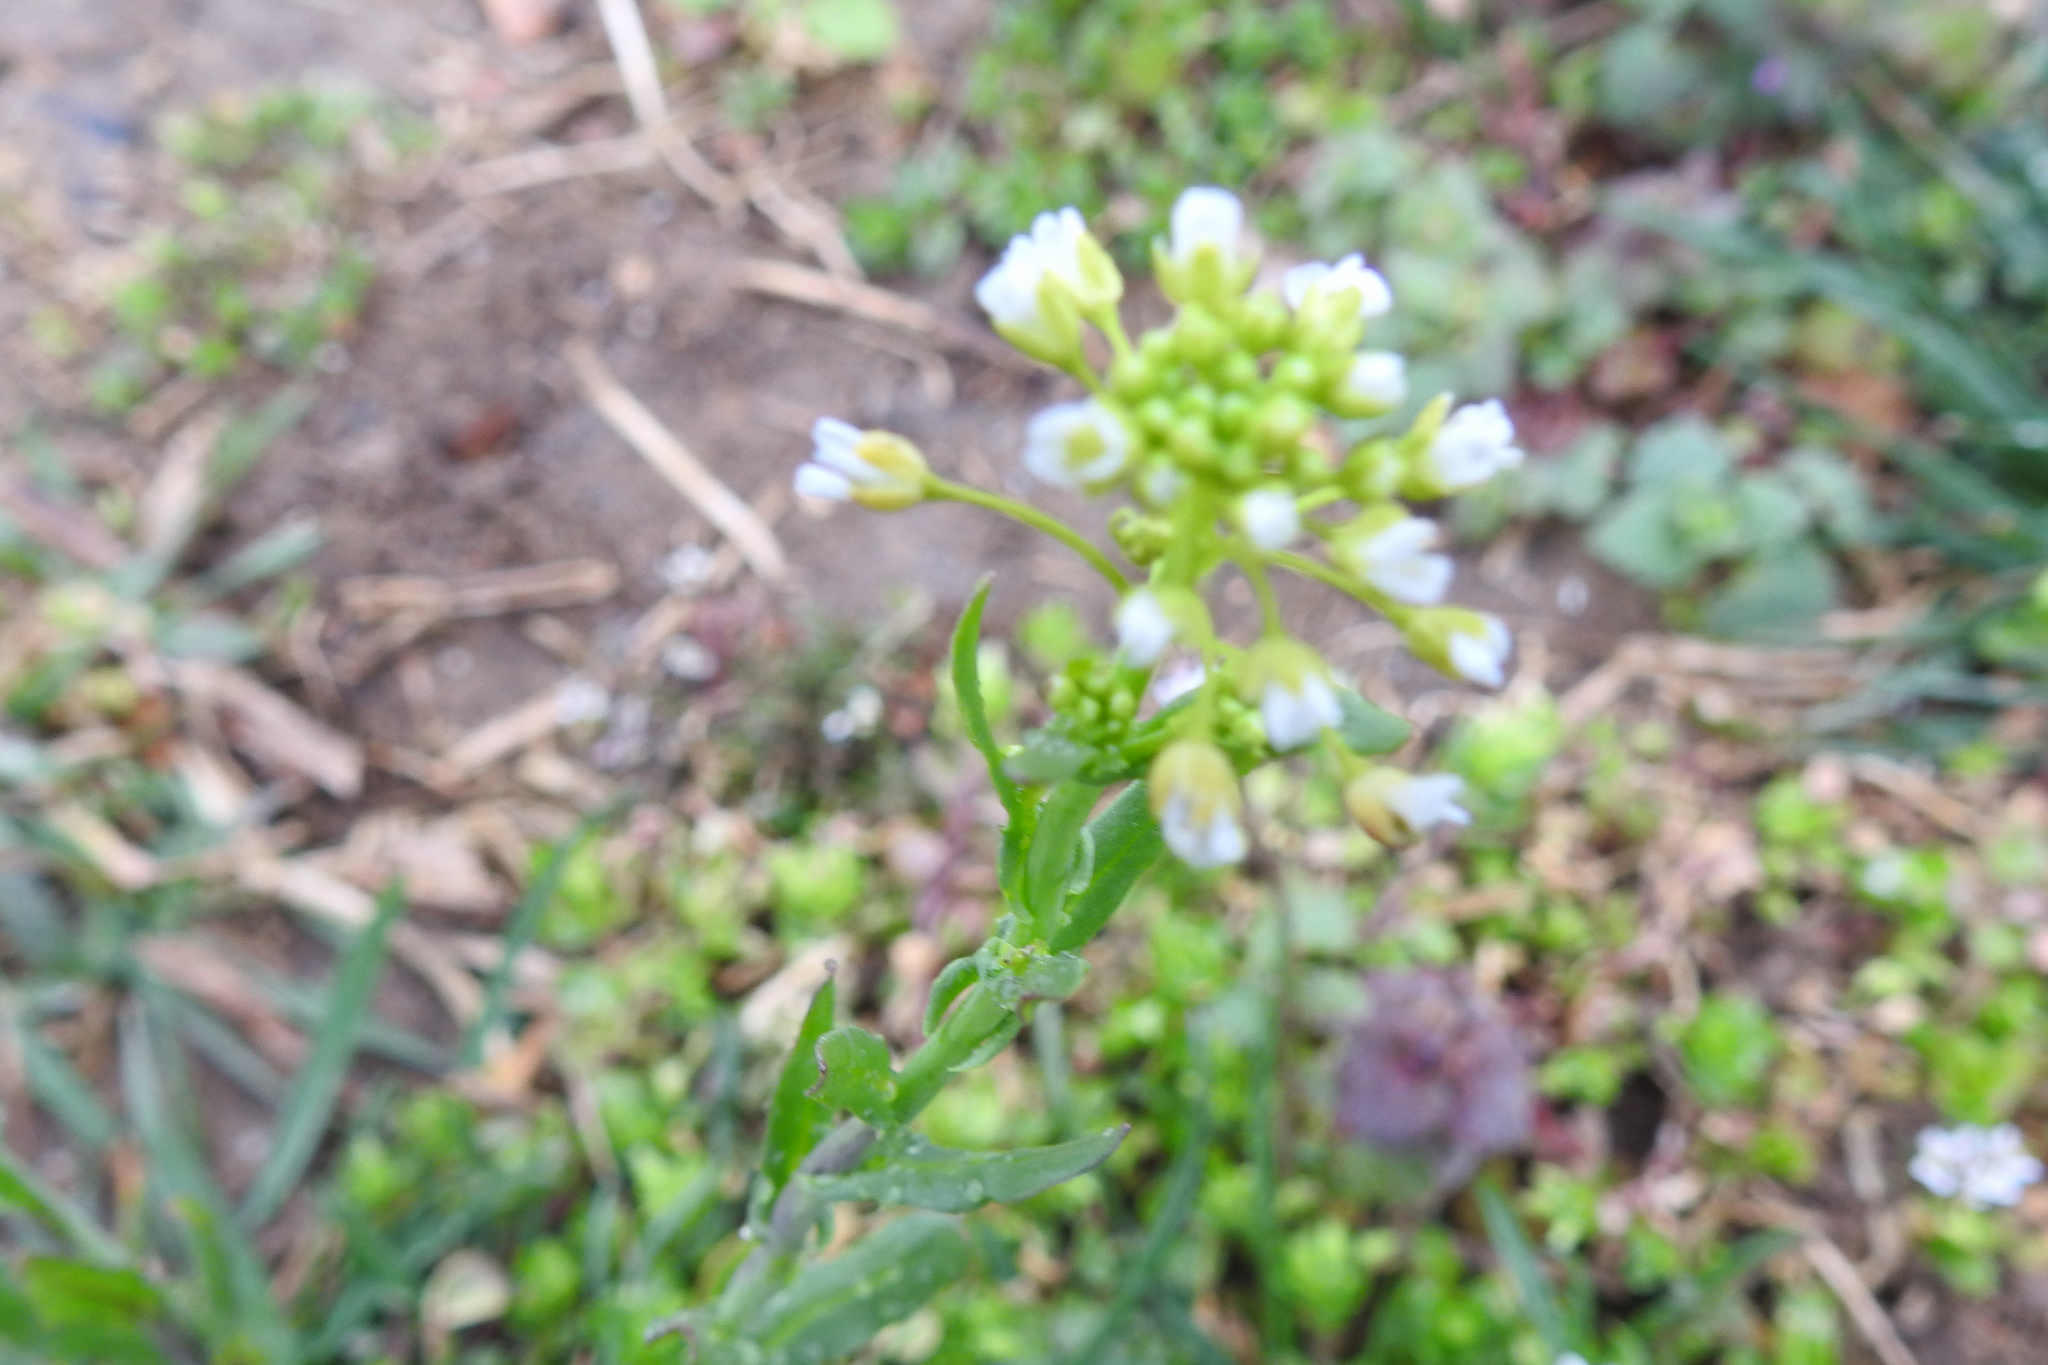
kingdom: Plantae
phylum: Tracheophyta
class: Magnoliopsida
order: Brassicales
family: Brassicaceae
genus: Mummenhoffia
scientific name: Mummenhoffia alliacea
